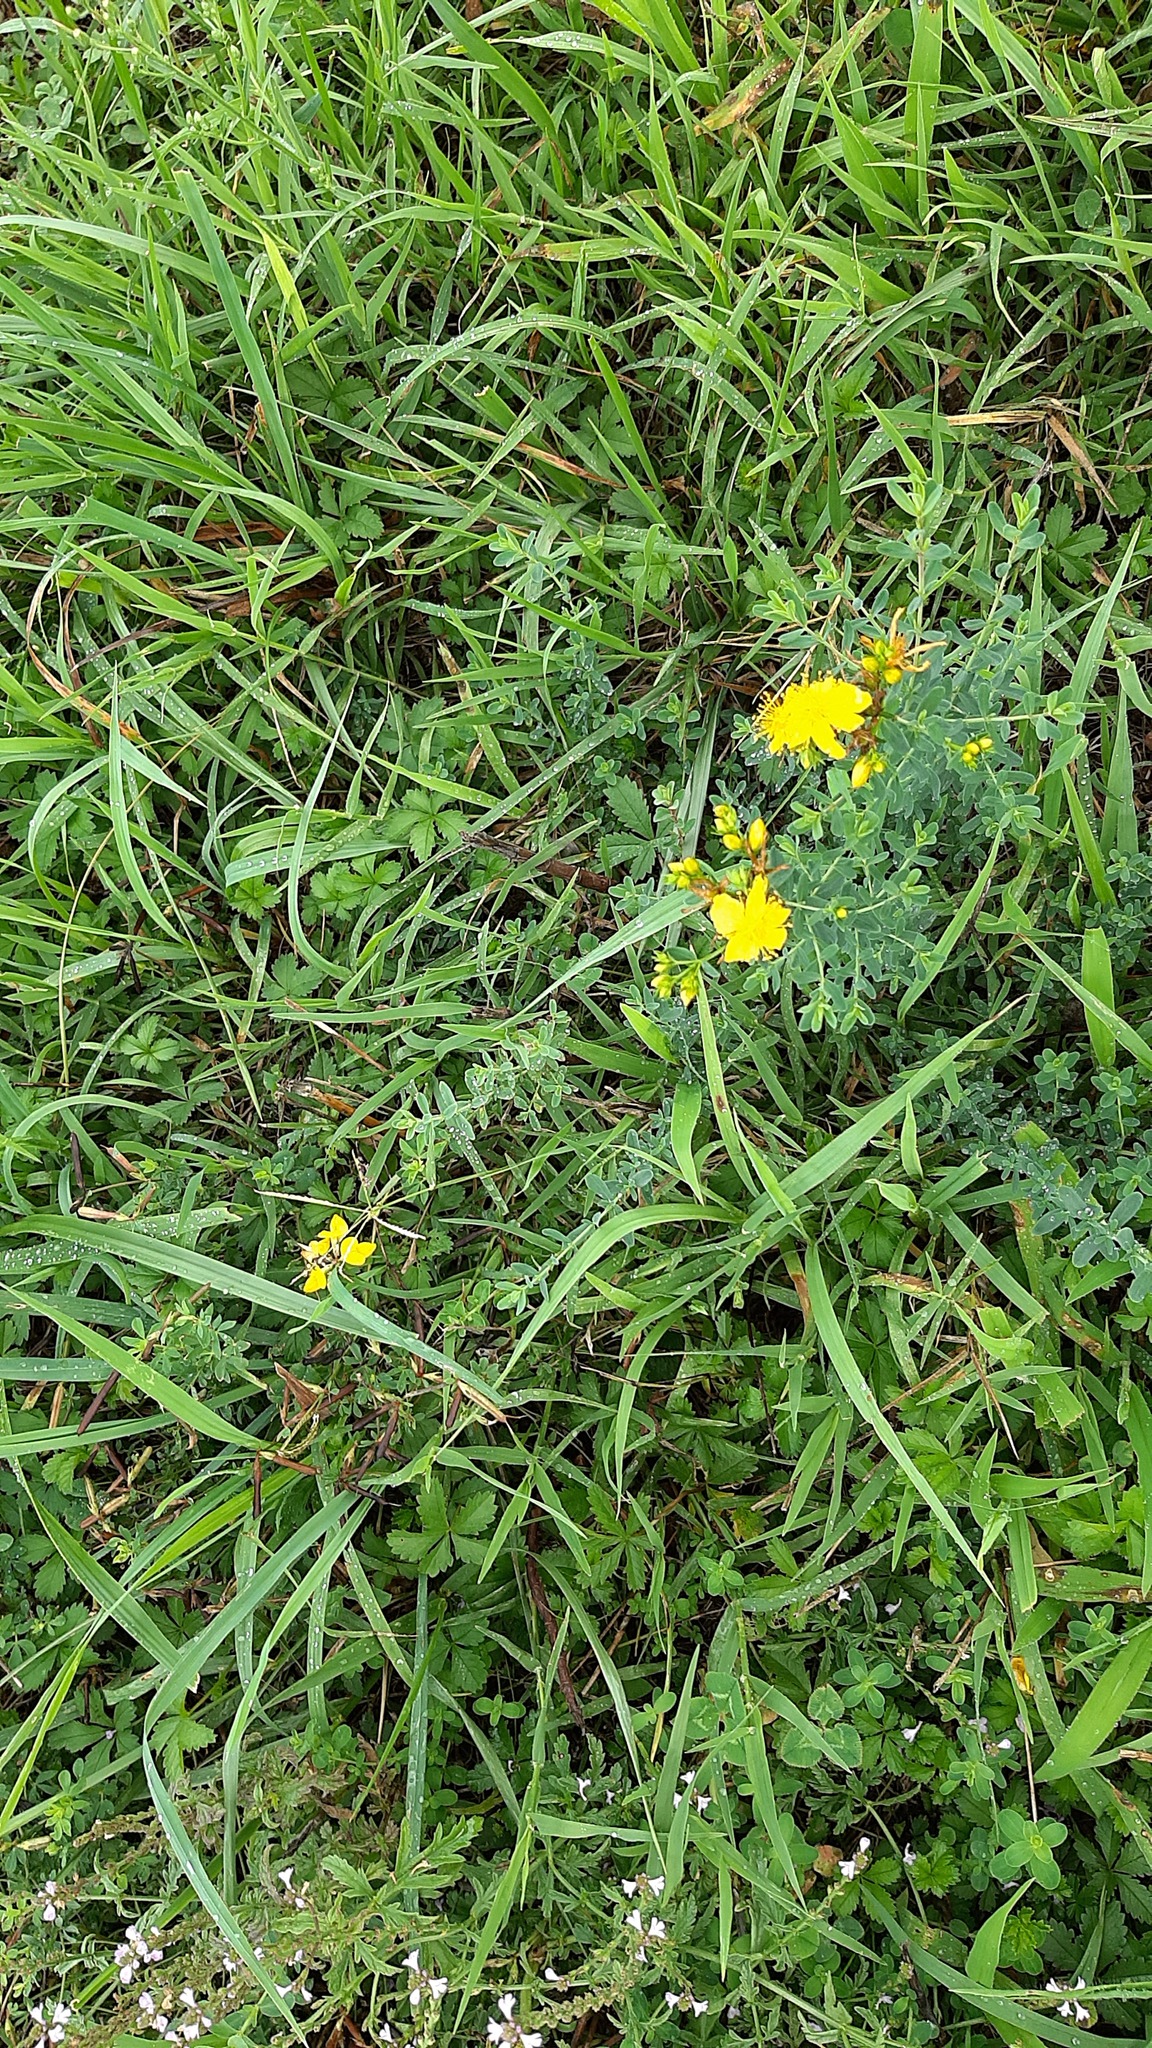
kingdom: Plantae
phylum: Tracheophyta
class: Magnoliopsida
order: Lamiales
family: Verbenaceae
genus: Verbena
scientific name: Verbena officinalis
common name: Vervain
